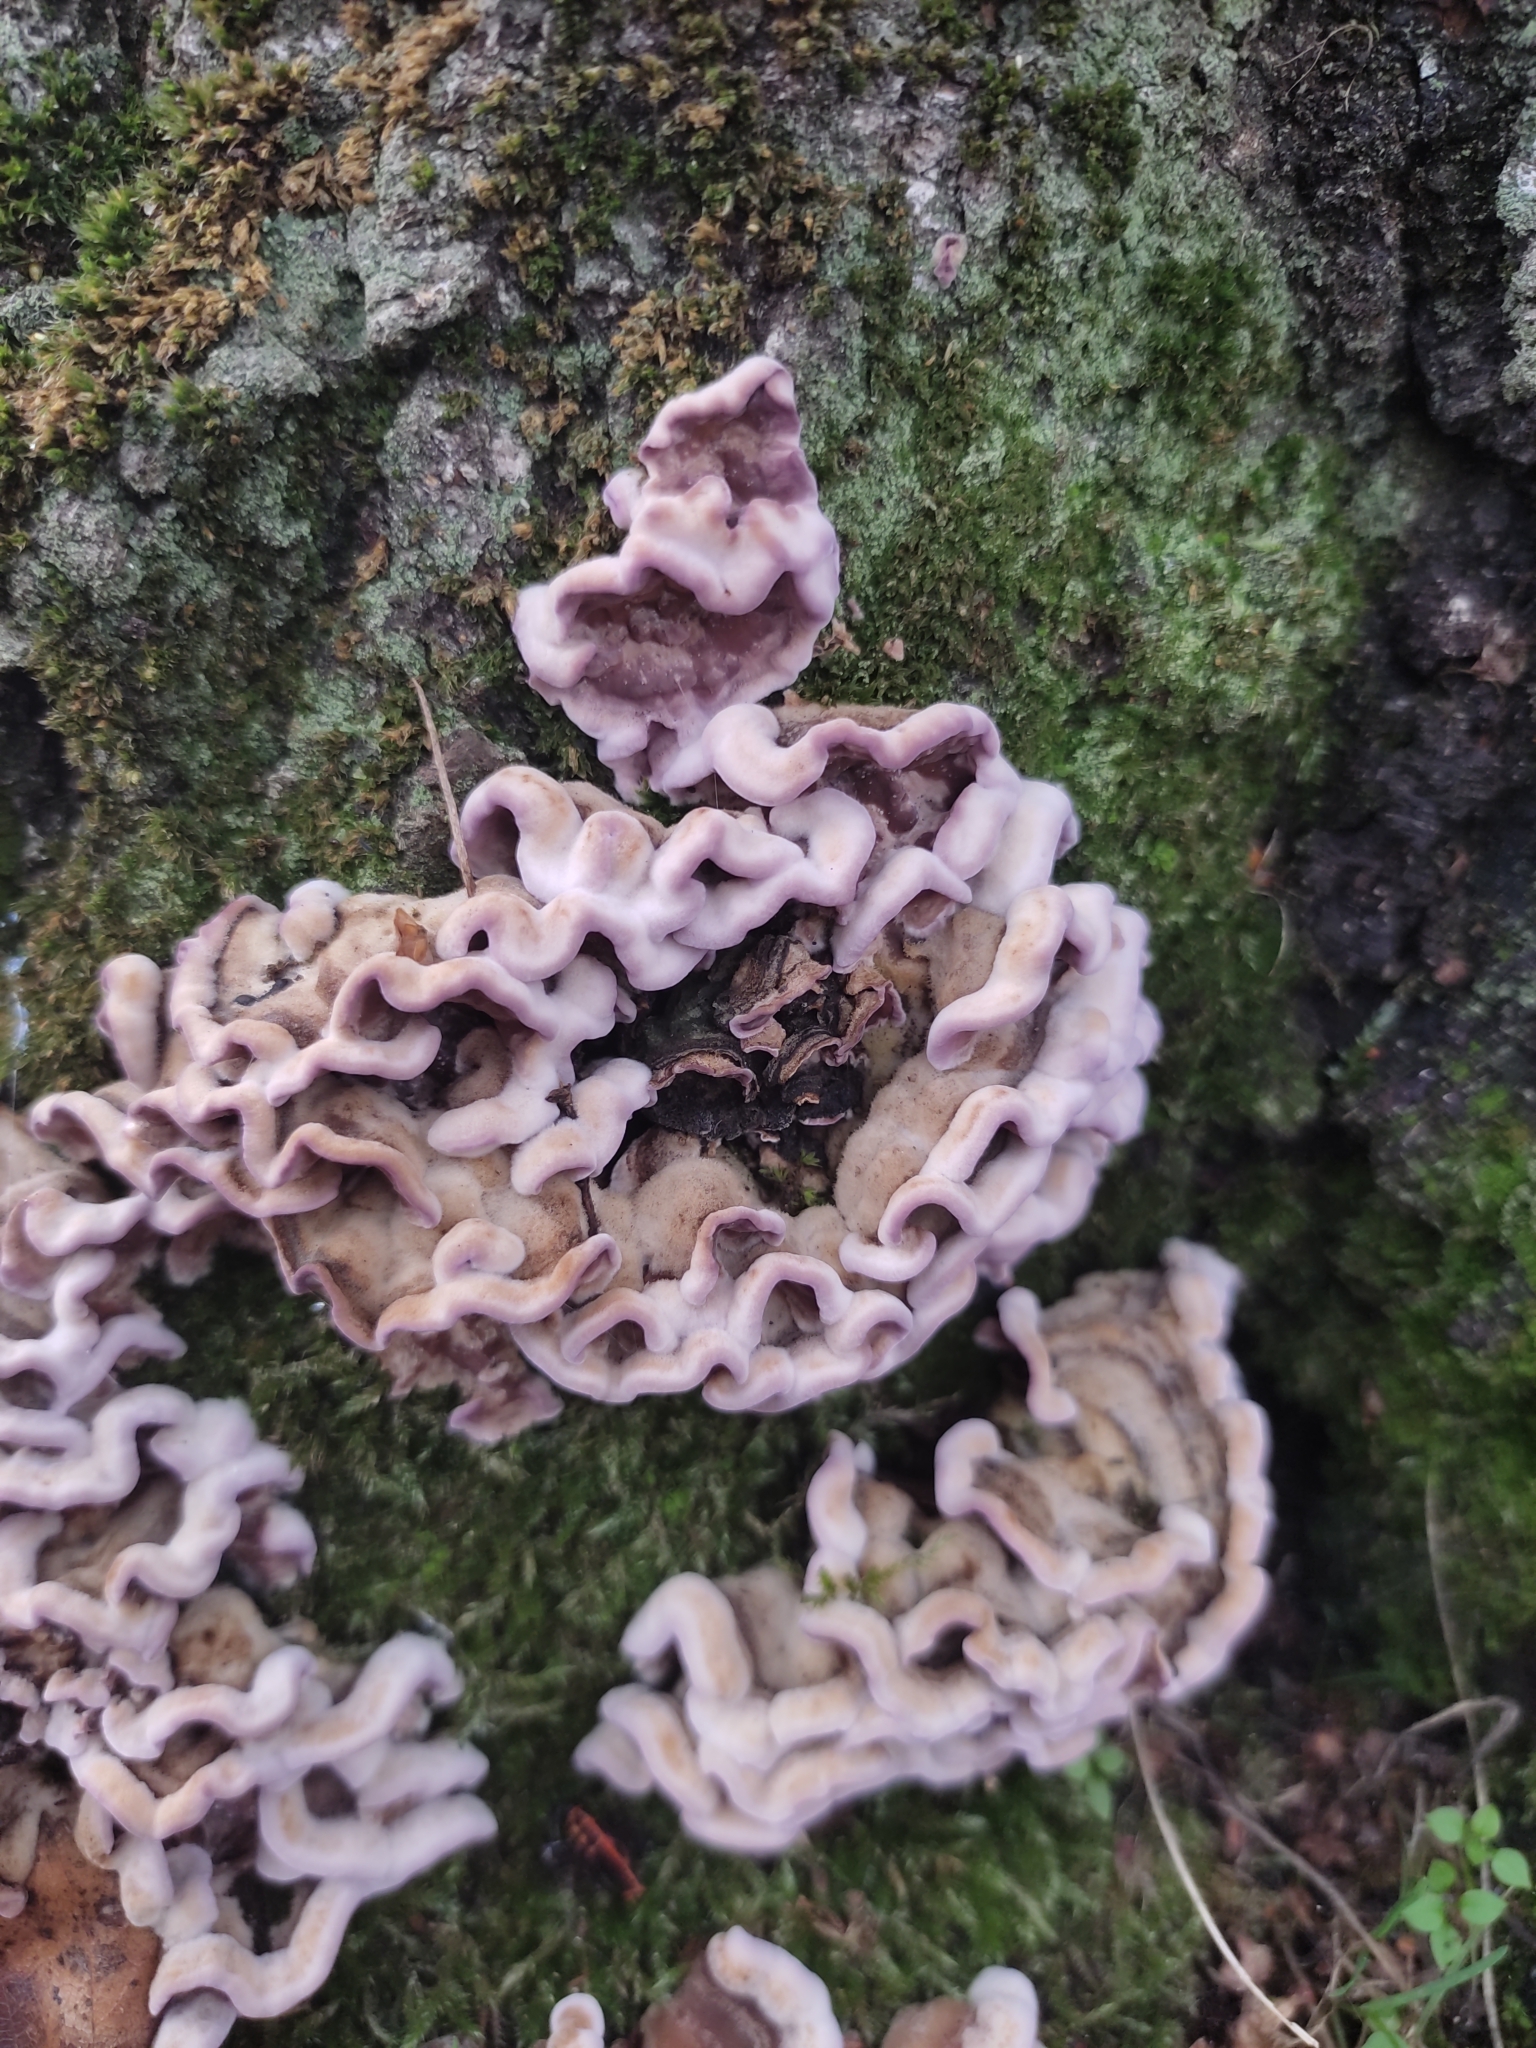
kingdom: Fungi
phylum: Basidiomycota
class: Agaricomycetes
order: Agaricales
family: Cyphellaceae
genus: Chondrostereum
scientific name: Chondrostereum purpureum
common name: Silver leaf disease
